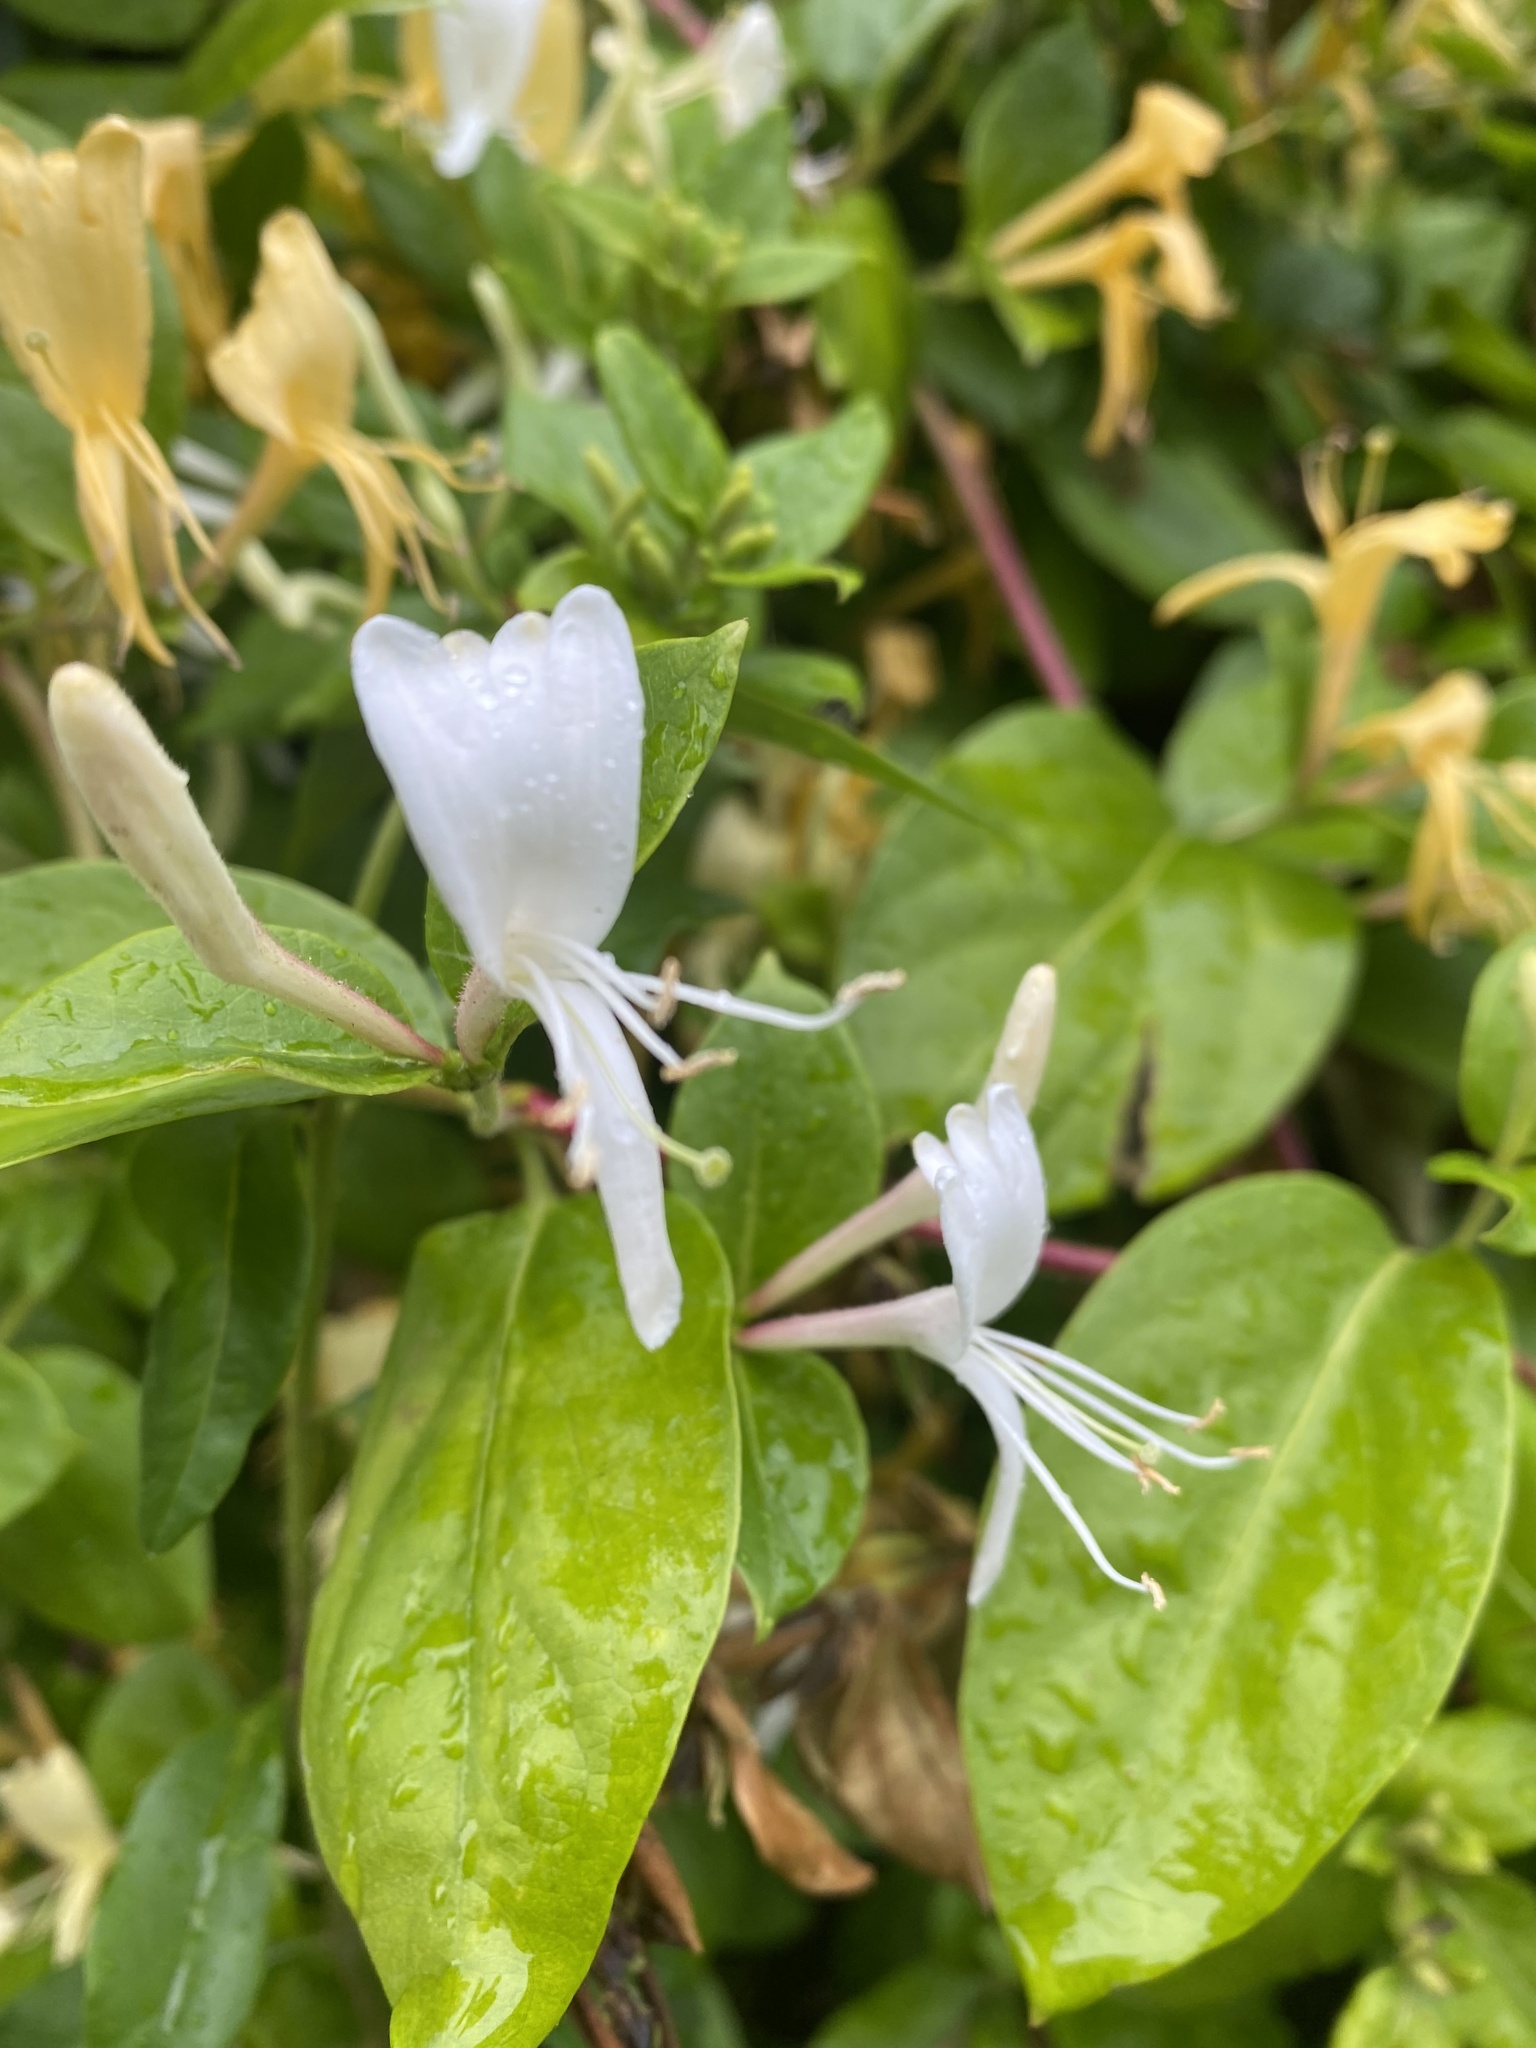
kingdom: Plantae
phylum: Tracheophyta
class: Magnoliopsida
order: Dipsacales
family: Caprifoliaceae
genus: Lonicera
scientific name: Lonicera japonica
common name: Japanese honeysuckle
